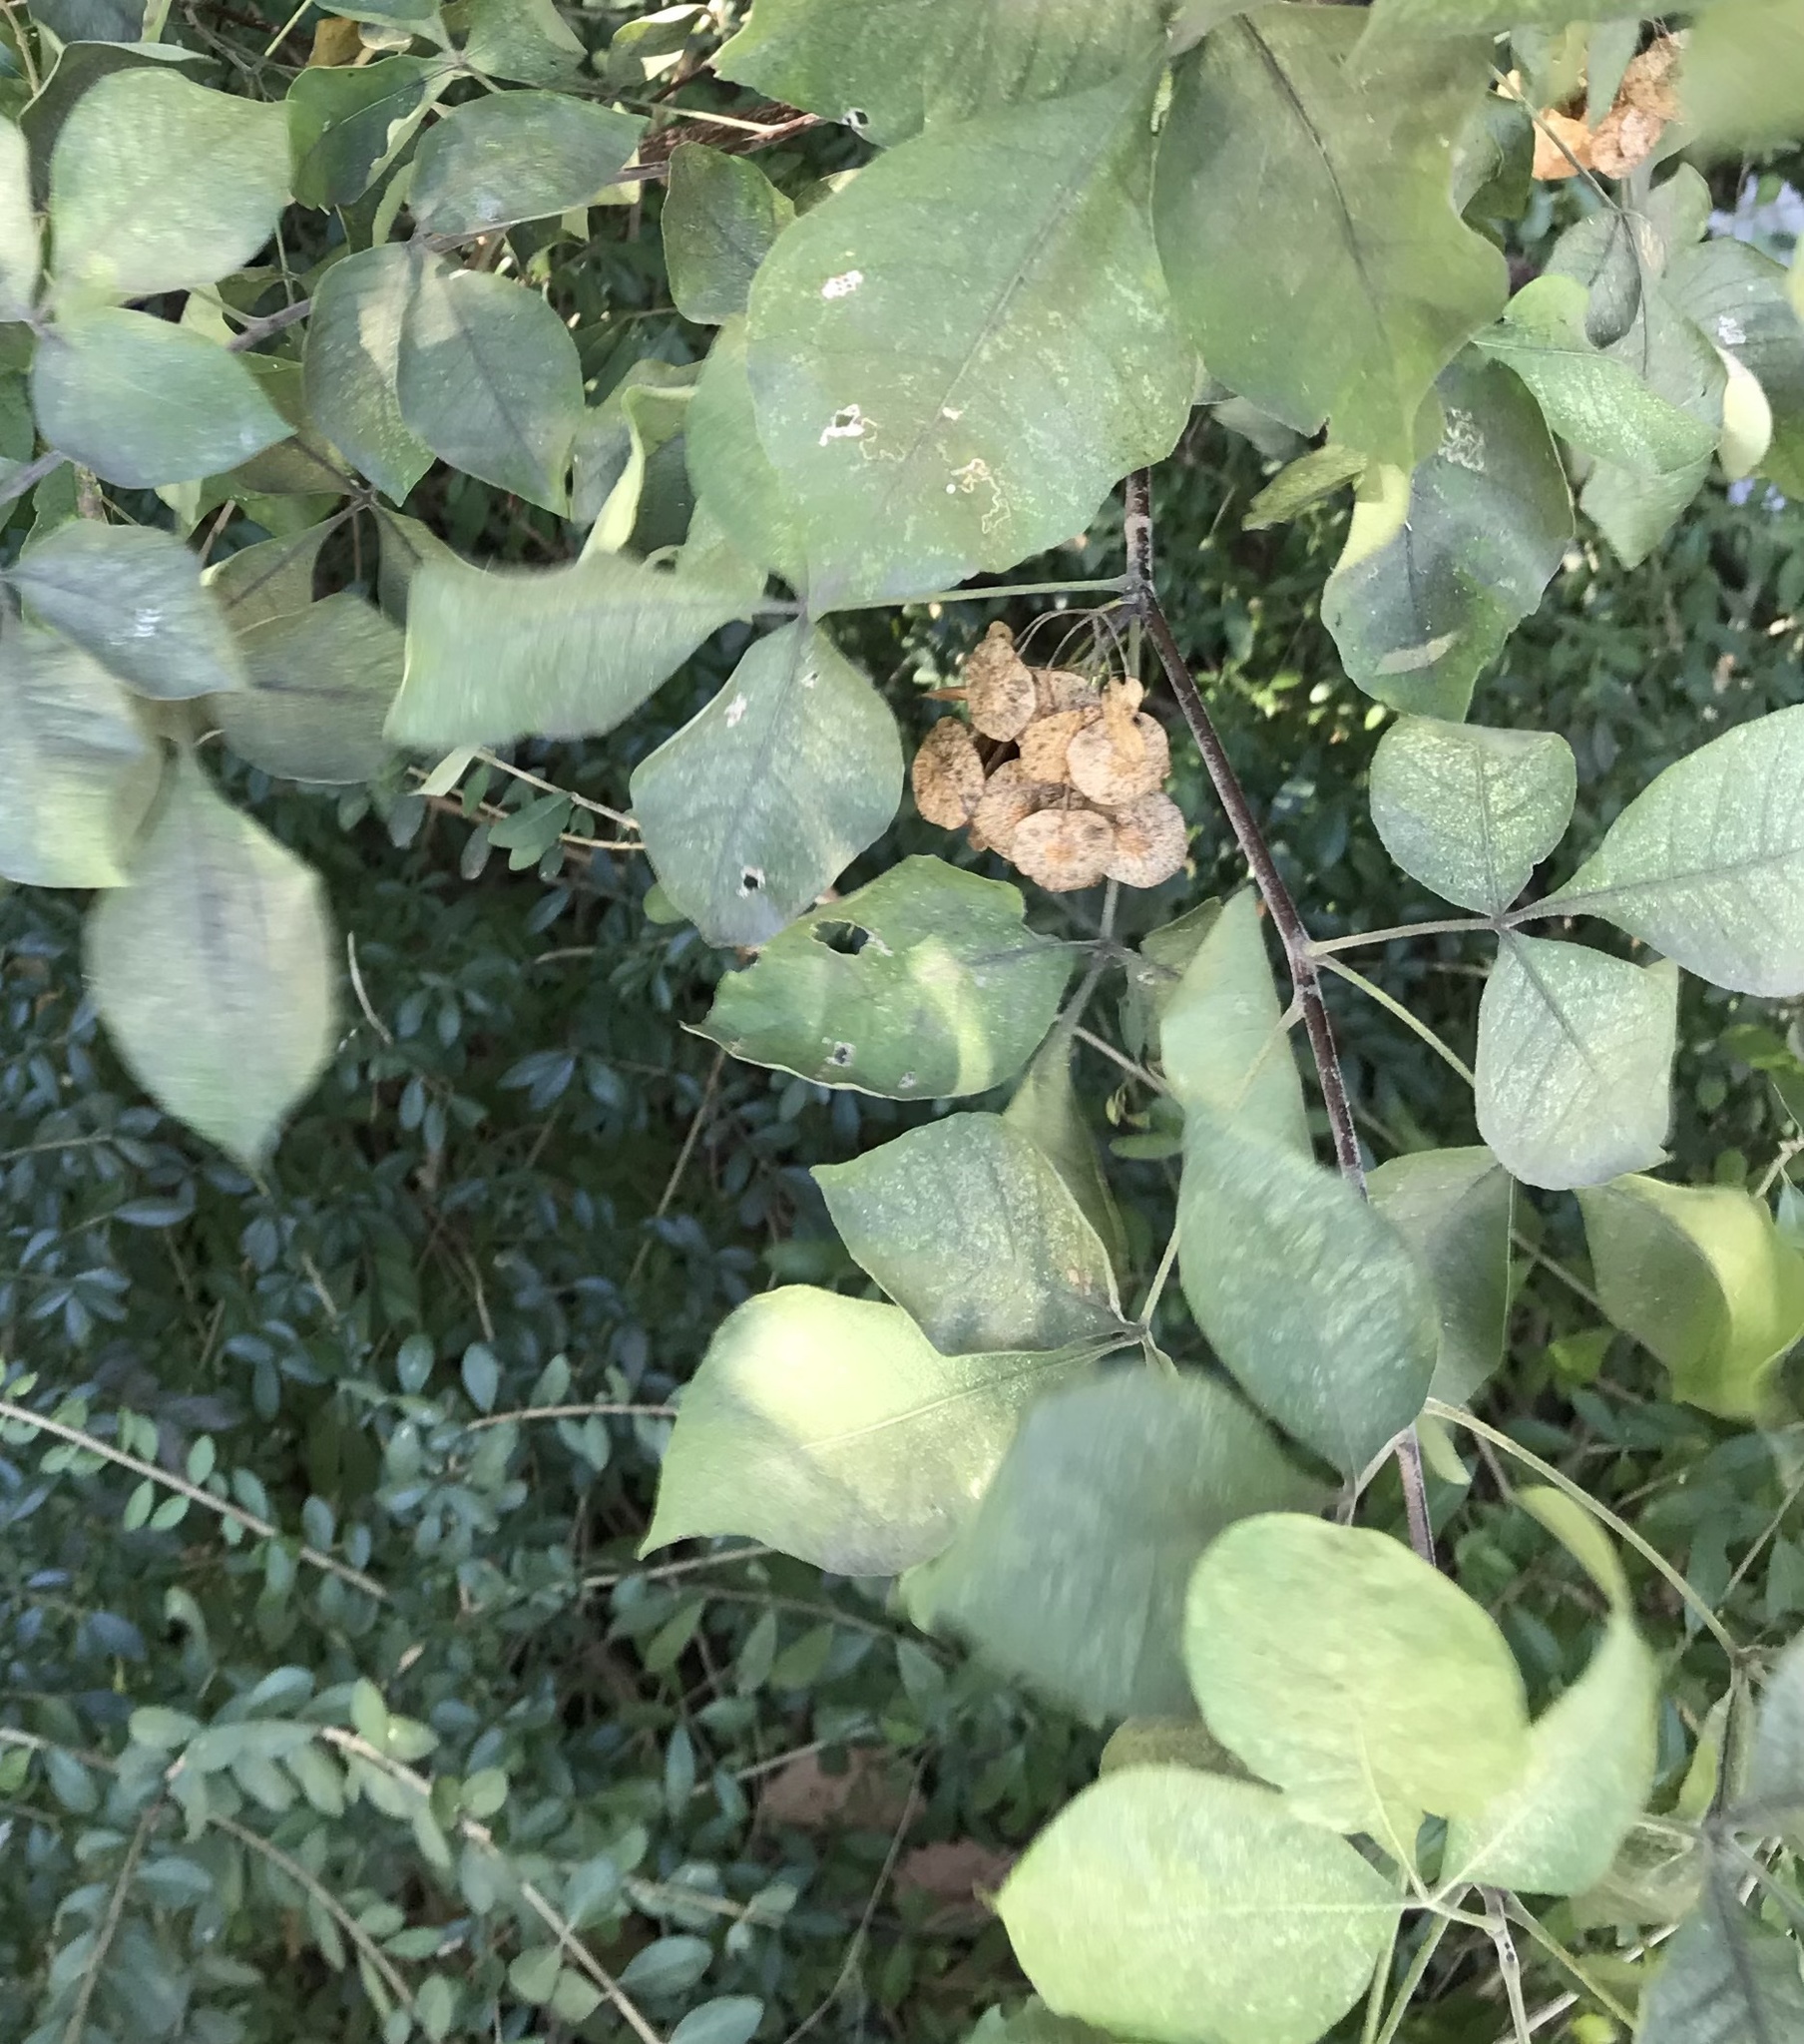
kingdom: Plantae
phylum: Tracheophyta
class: Magnoliopsida
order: Sapindales
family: Rutaceae
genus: Ptelea
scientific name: Ptelea trifoliata
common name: Common hop-tree
